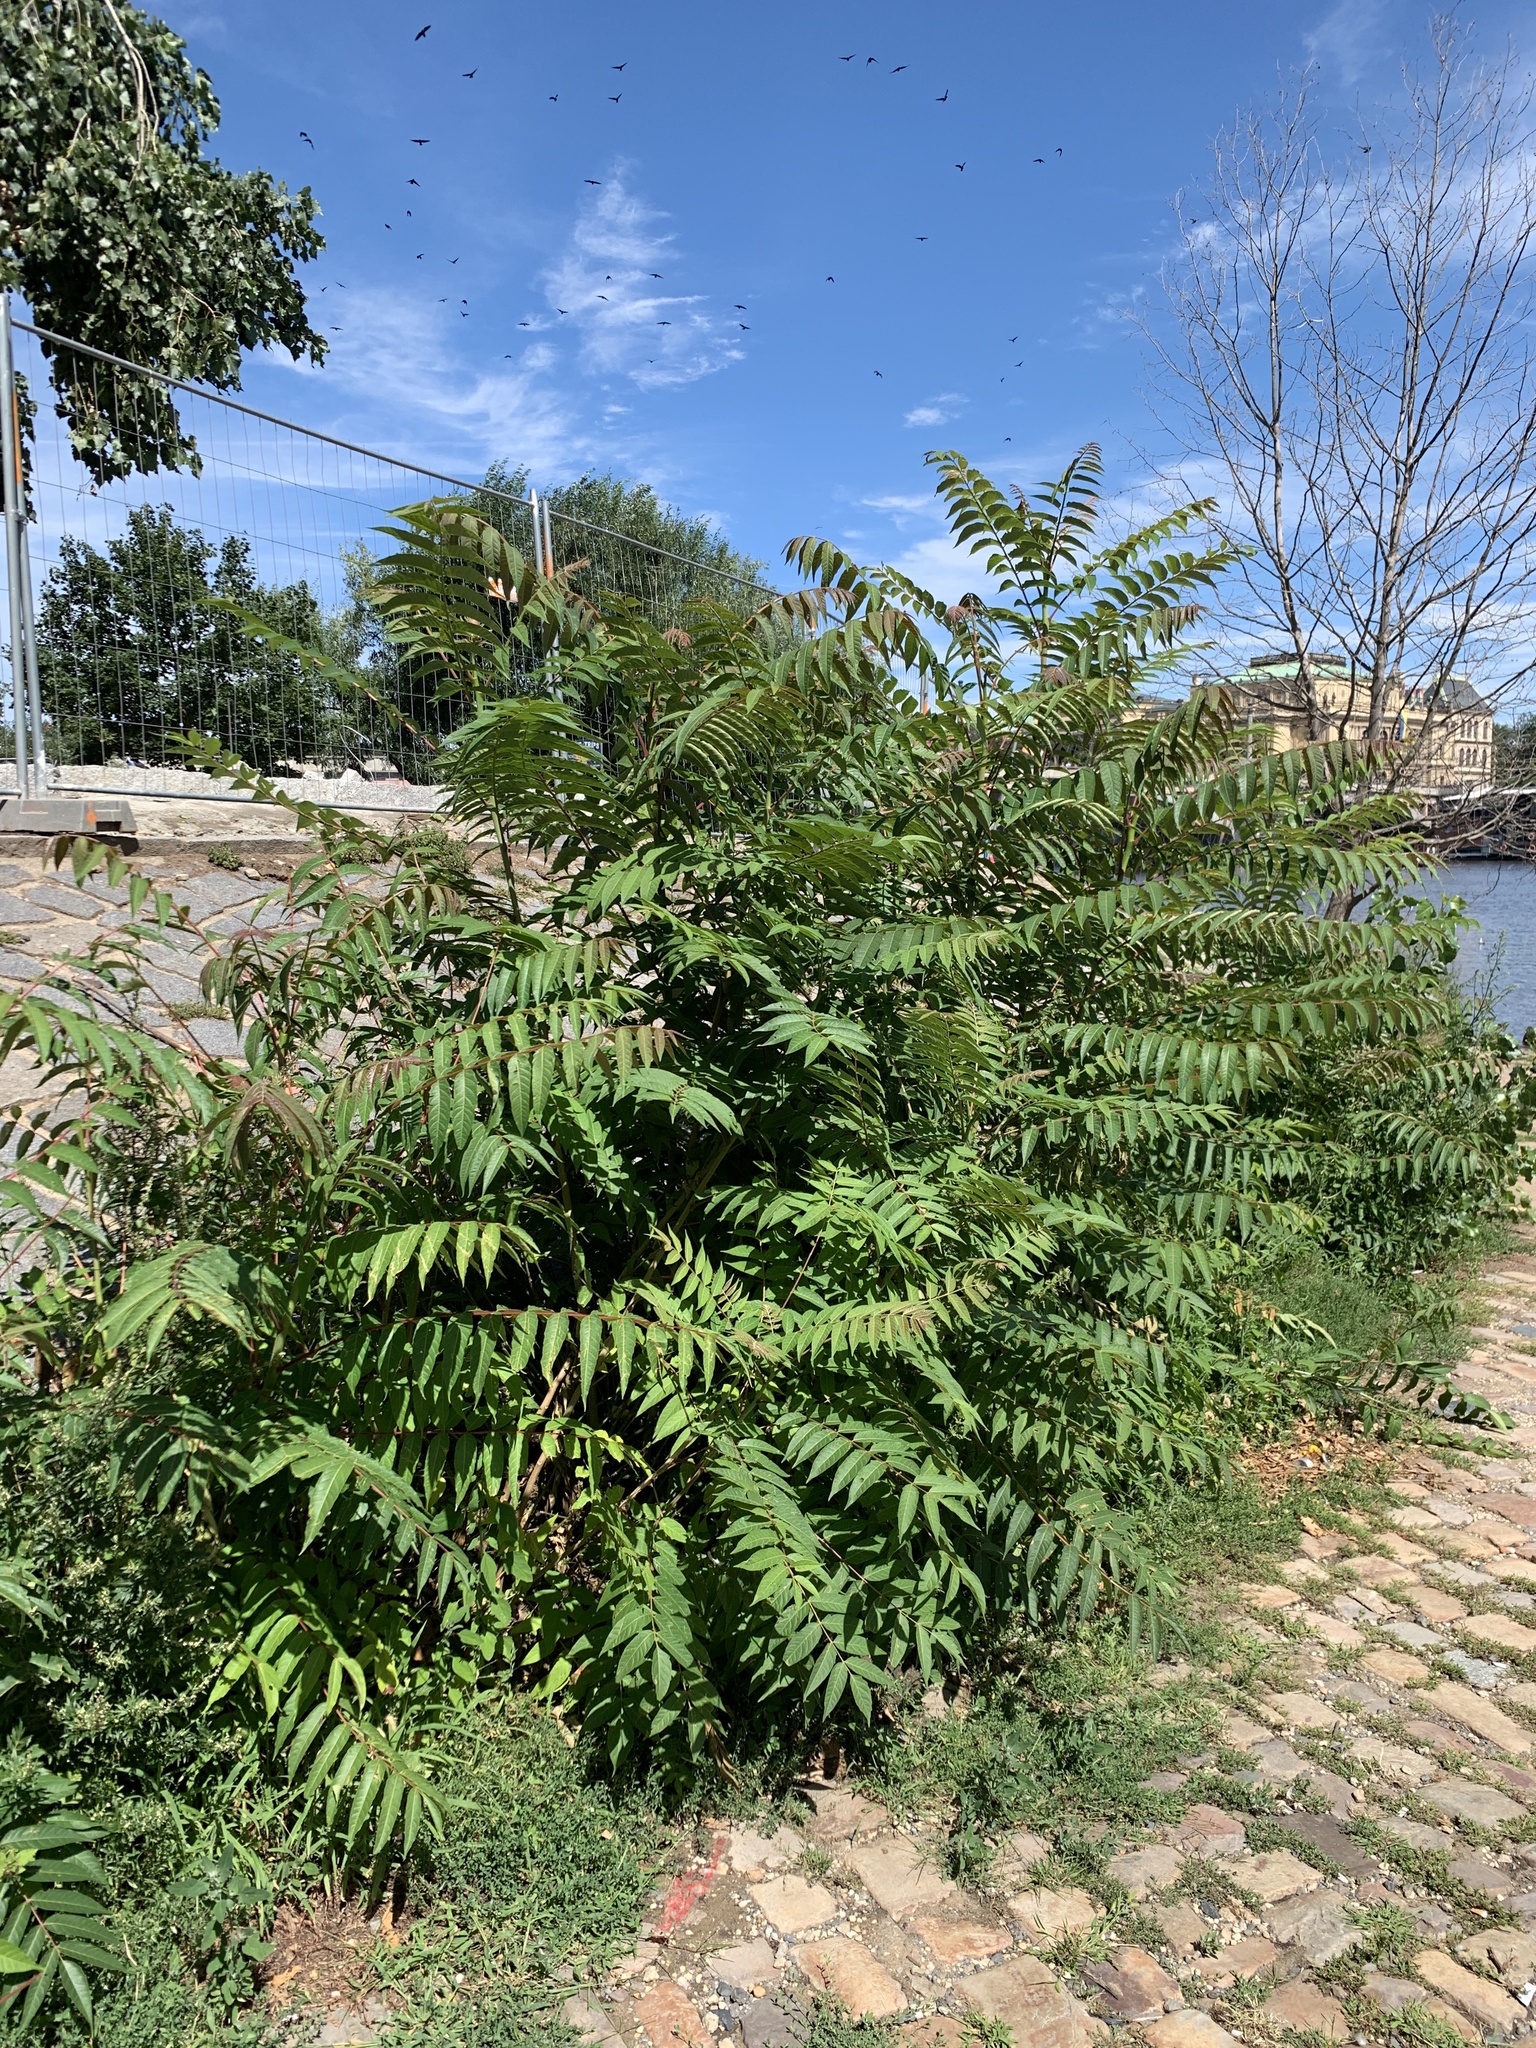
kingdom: Plantae
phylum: Tracheophyta
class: Magnoliopsida
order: Sapindales
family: Simaroubaceae
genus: Ailanthus
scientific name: Ailanthus altissima
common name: Tree-of-heaven
